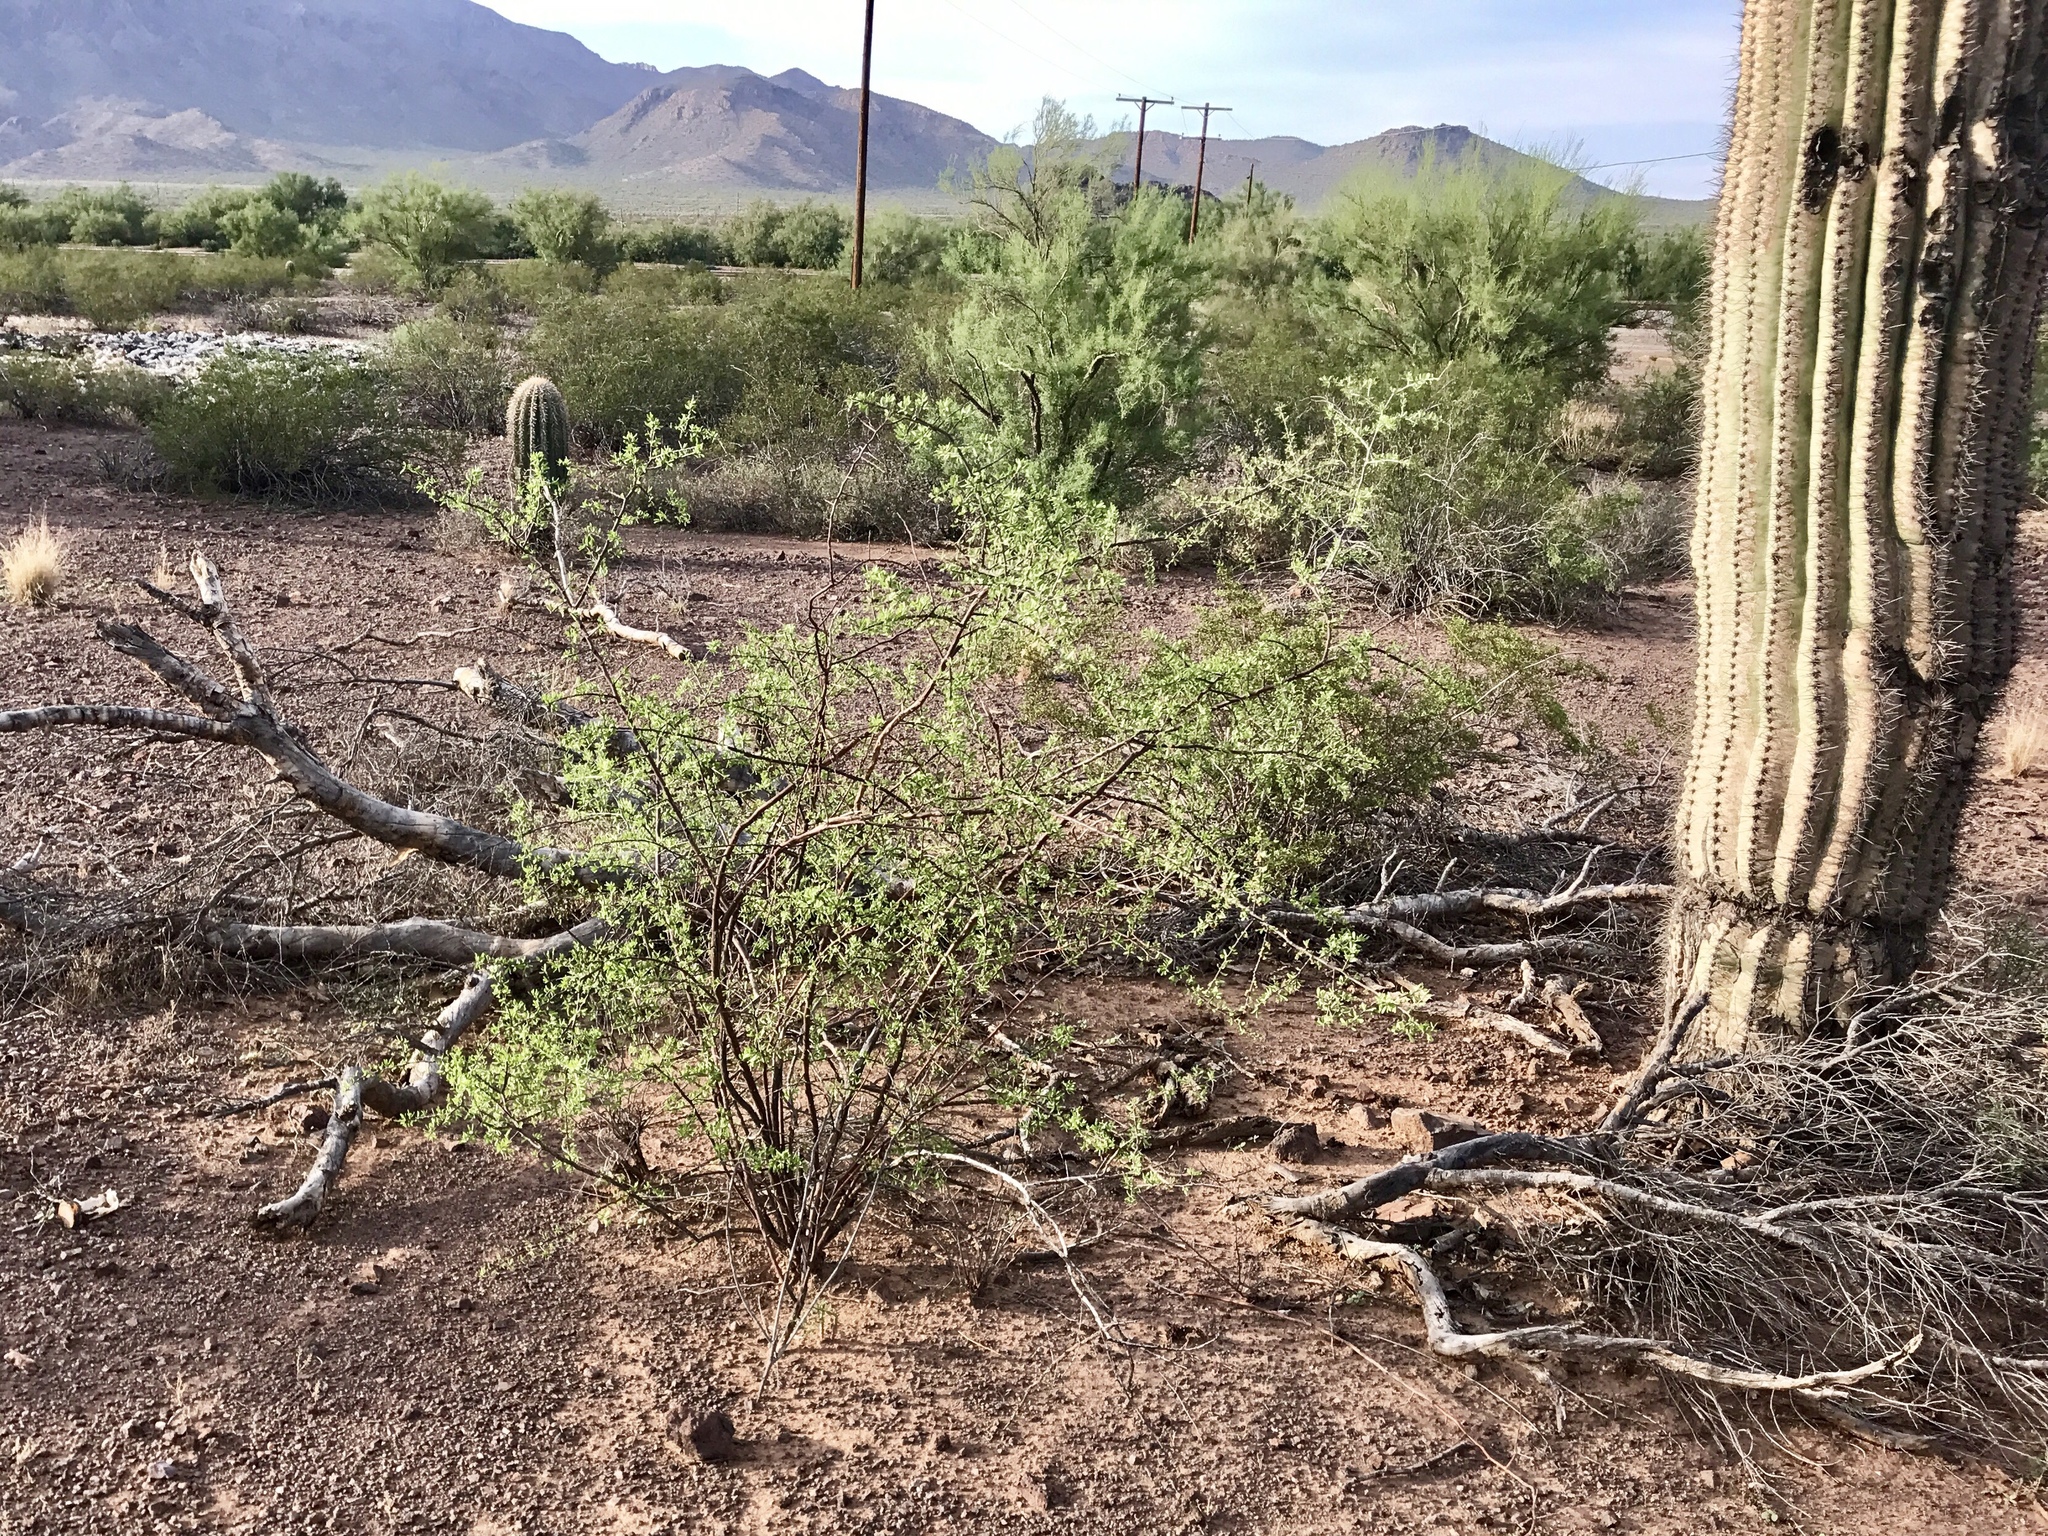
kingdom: Plantae
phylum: Tracheophyta
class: Magnoliopsida
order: Solanales
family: Solanaceae
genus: Lycium
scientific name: Lycium berlandieri
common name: Berlandier wolfberry
